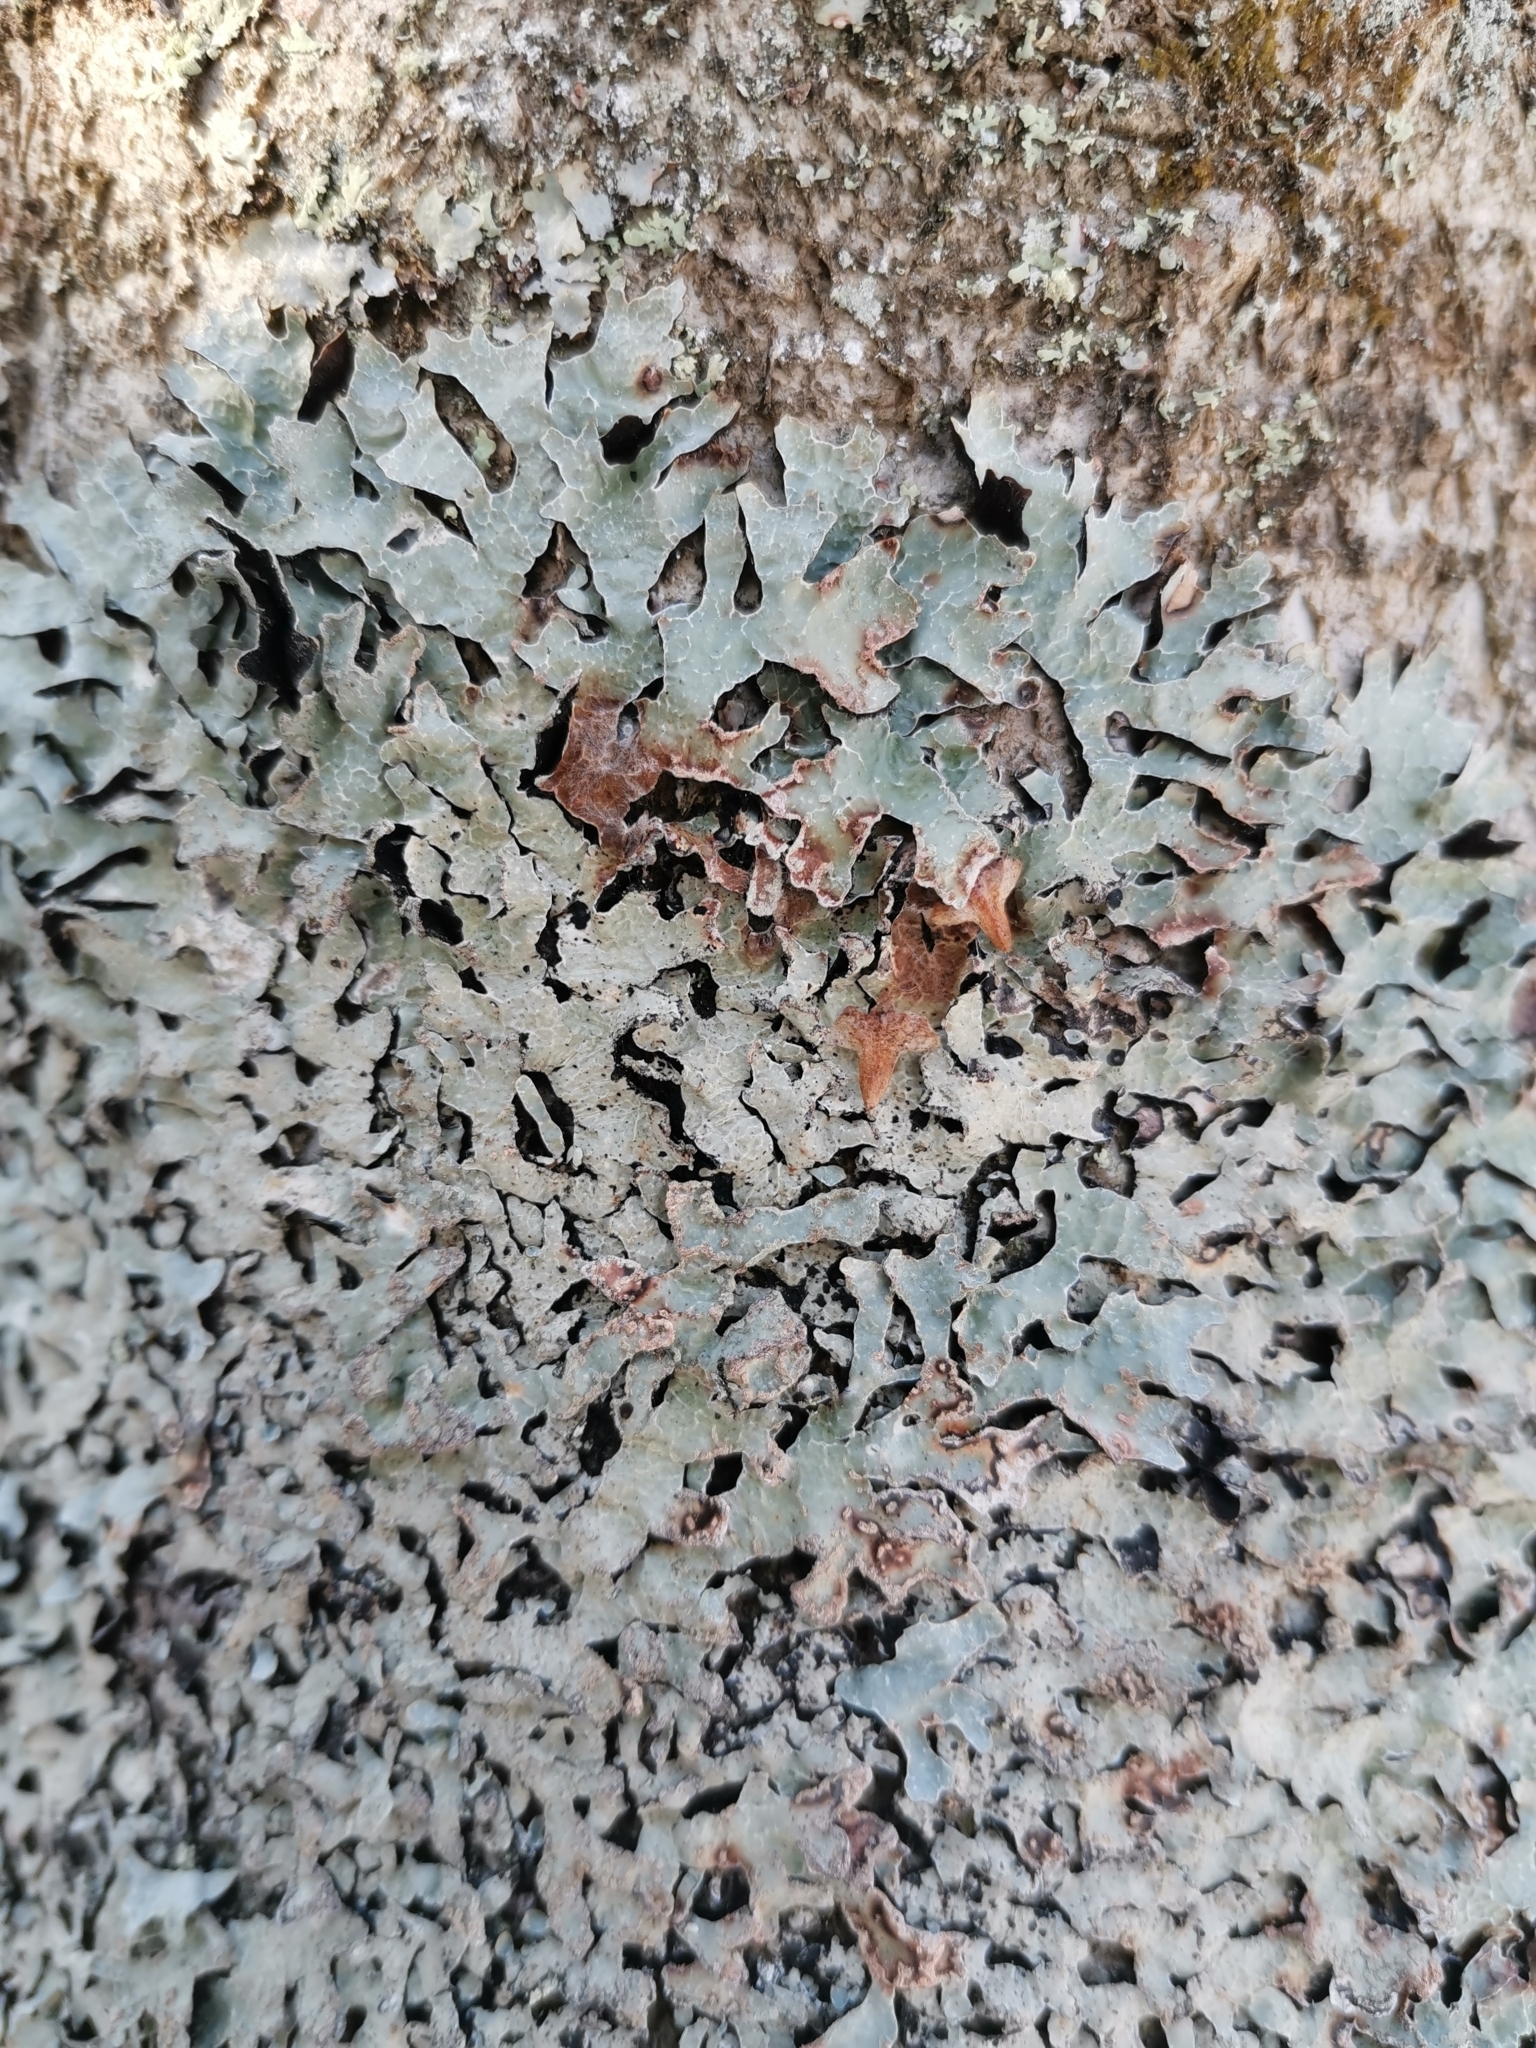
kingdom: Fungi
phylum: Ascomycota
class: Lecanoromycetes
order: Lecanorales
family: Parmeliaceae
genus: Parmelia
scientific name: Parmelia sulcata
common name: Netted shield lichen
